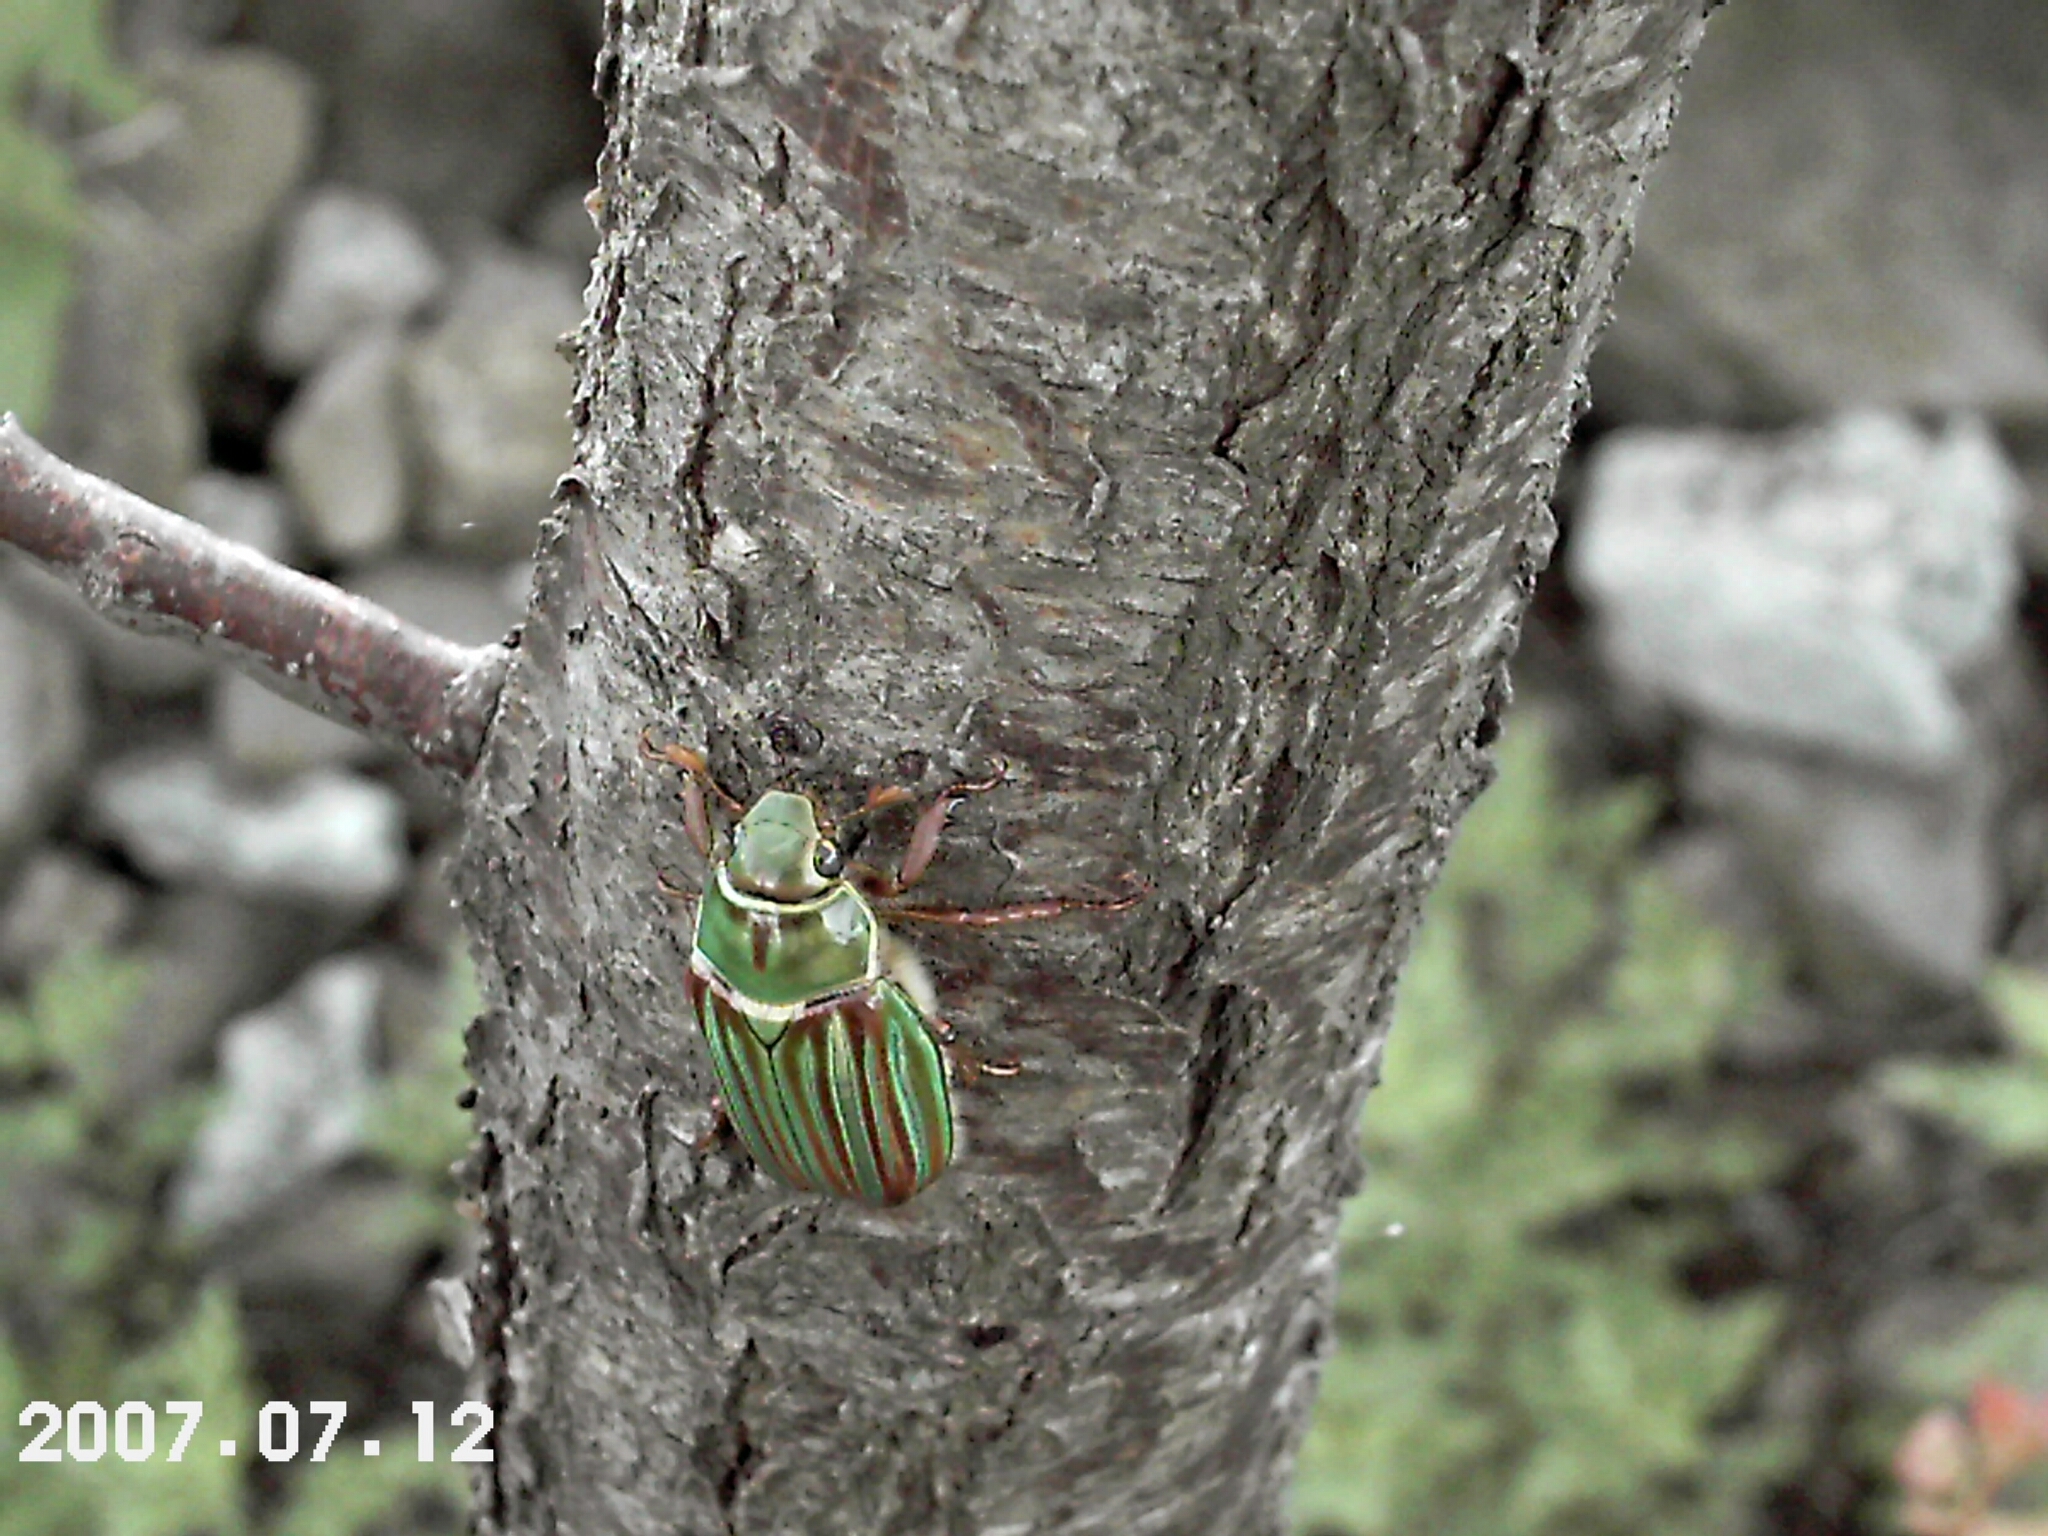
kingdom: Animalia
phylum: Arthropoda
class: Insecta
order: Coleoptera
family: Scarabaeidae
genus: Chrysina
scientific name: Chrysina adelaida
